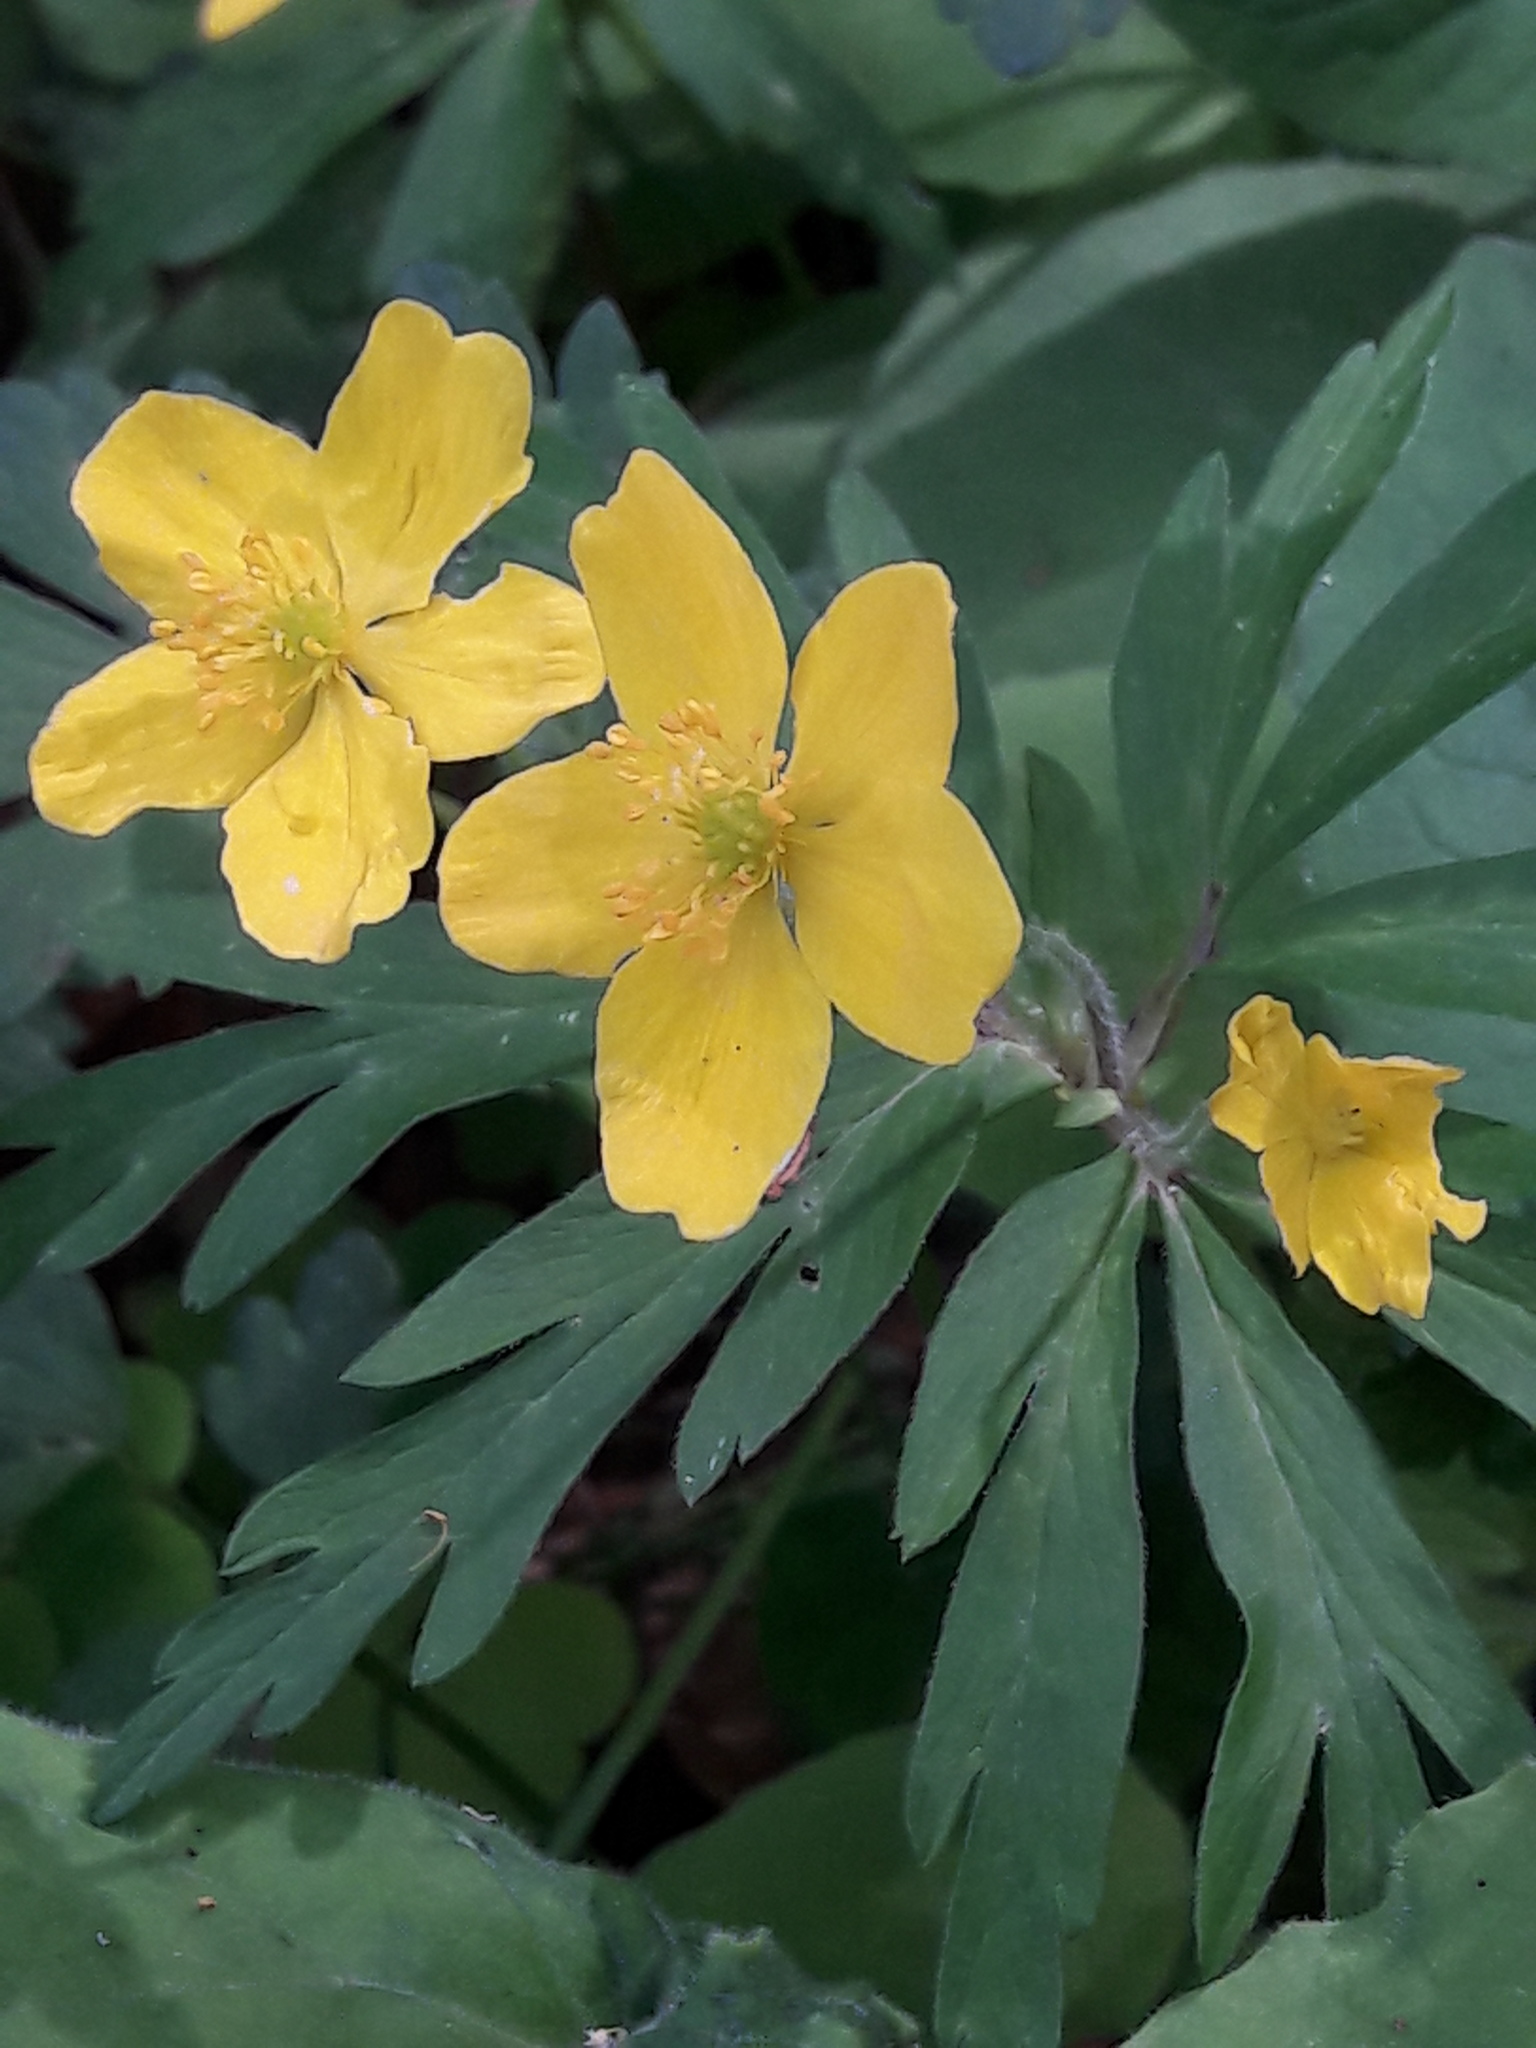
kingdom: Plantae
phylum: Tracheophyta
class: Magnoliopsida
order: Ranunculales
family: Ranunculaceae
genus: Anemone
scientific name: Anemone ranunculoides
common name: Yellow anemone
